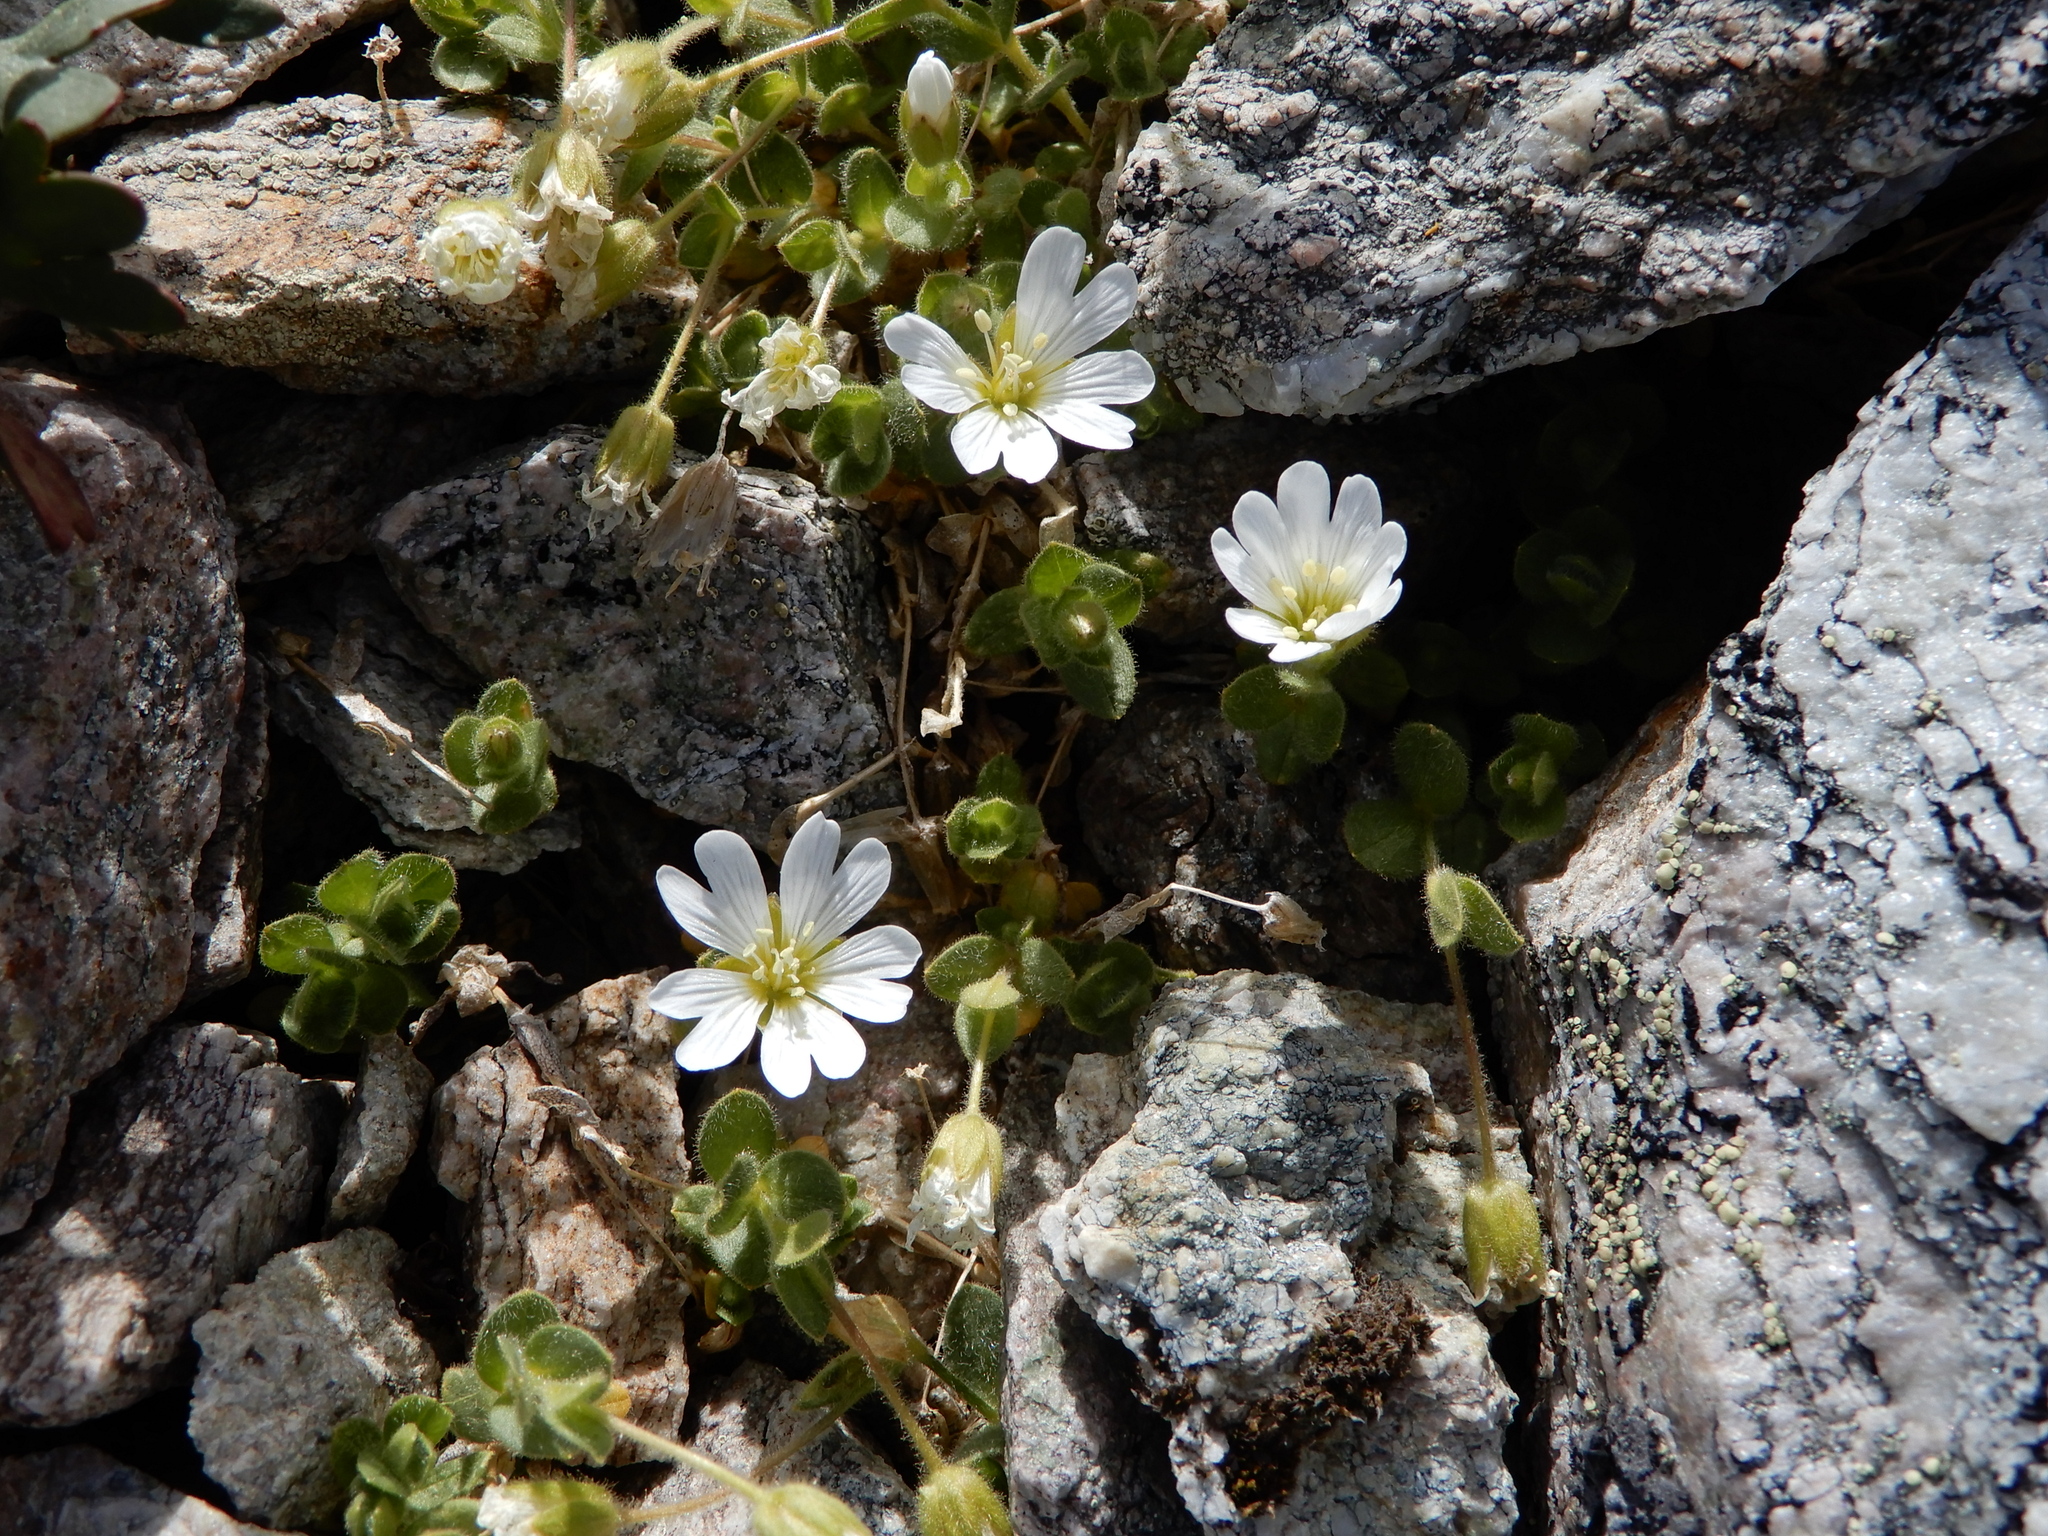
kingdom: Plantae
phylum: Tracheophyta
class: Magnoliopsida
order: Caryophyllales
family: Caryophyllaceae
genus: Cerastium
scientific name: Cerastium uniflorum
